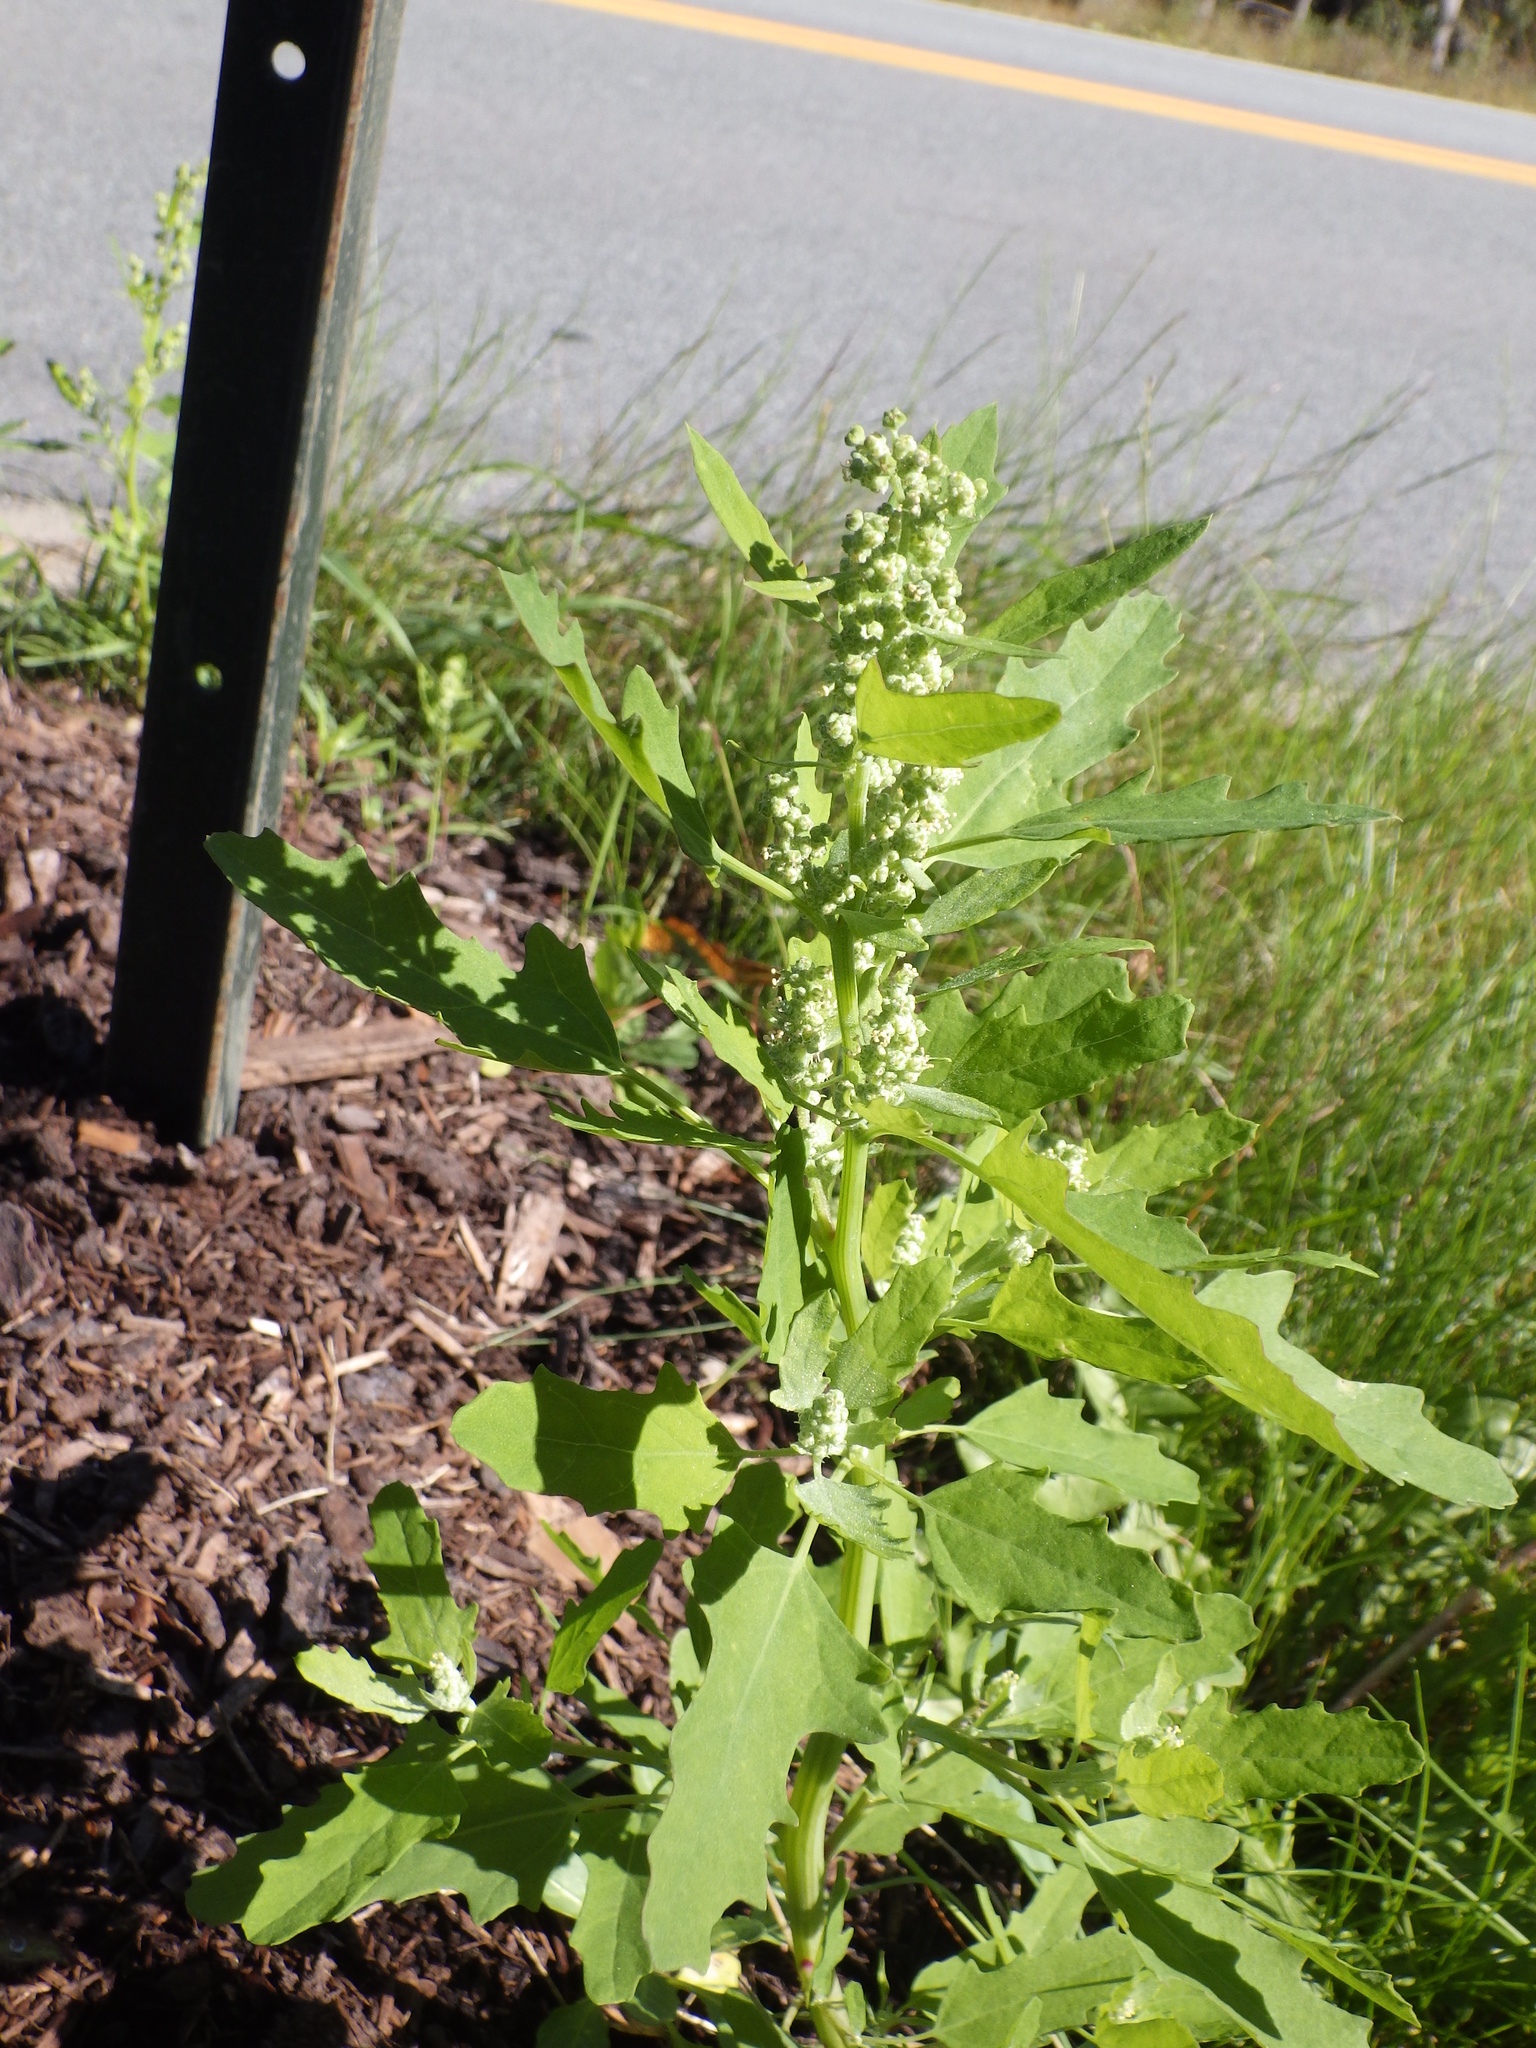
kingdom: Plantae
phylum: Tracheophyta
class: Magnoliopsida
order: Caryophyllales
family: Amaranthaceae
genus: Chenopodium
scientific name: Chenopodium album
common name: Fat-hen
